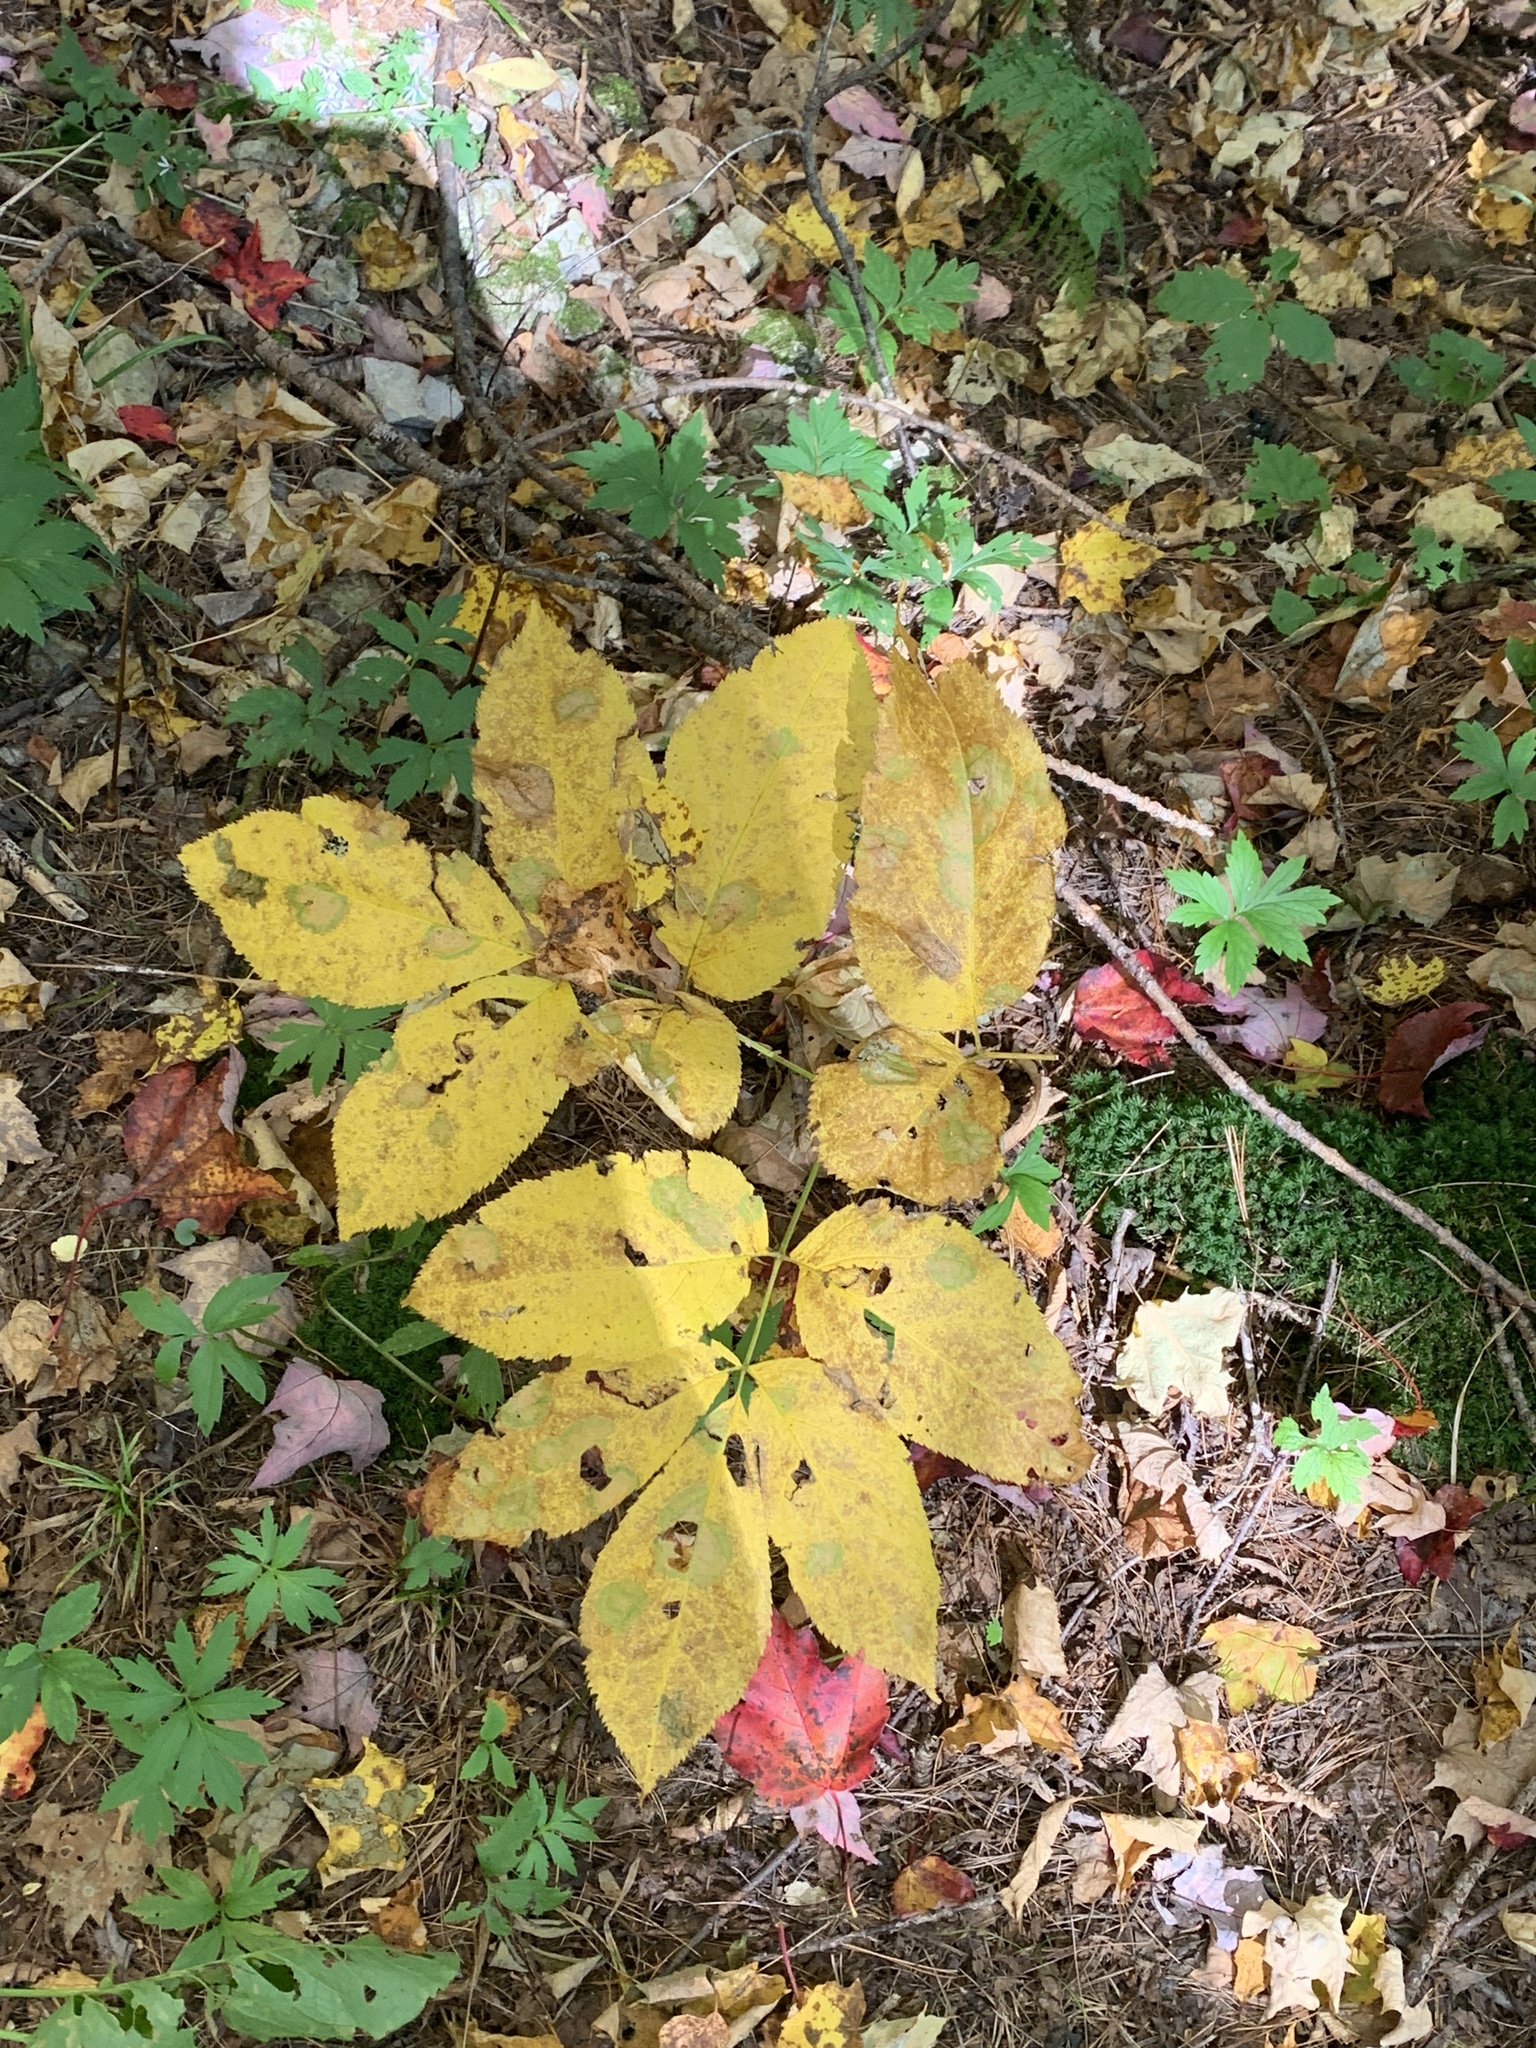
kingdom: Plantae
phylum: Tracheophyta
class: Magnoliopsida
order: Apiales
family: Araliaceae
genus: Aralia
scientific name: Aralia nudicaulis
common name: Wild sarsaparilla
